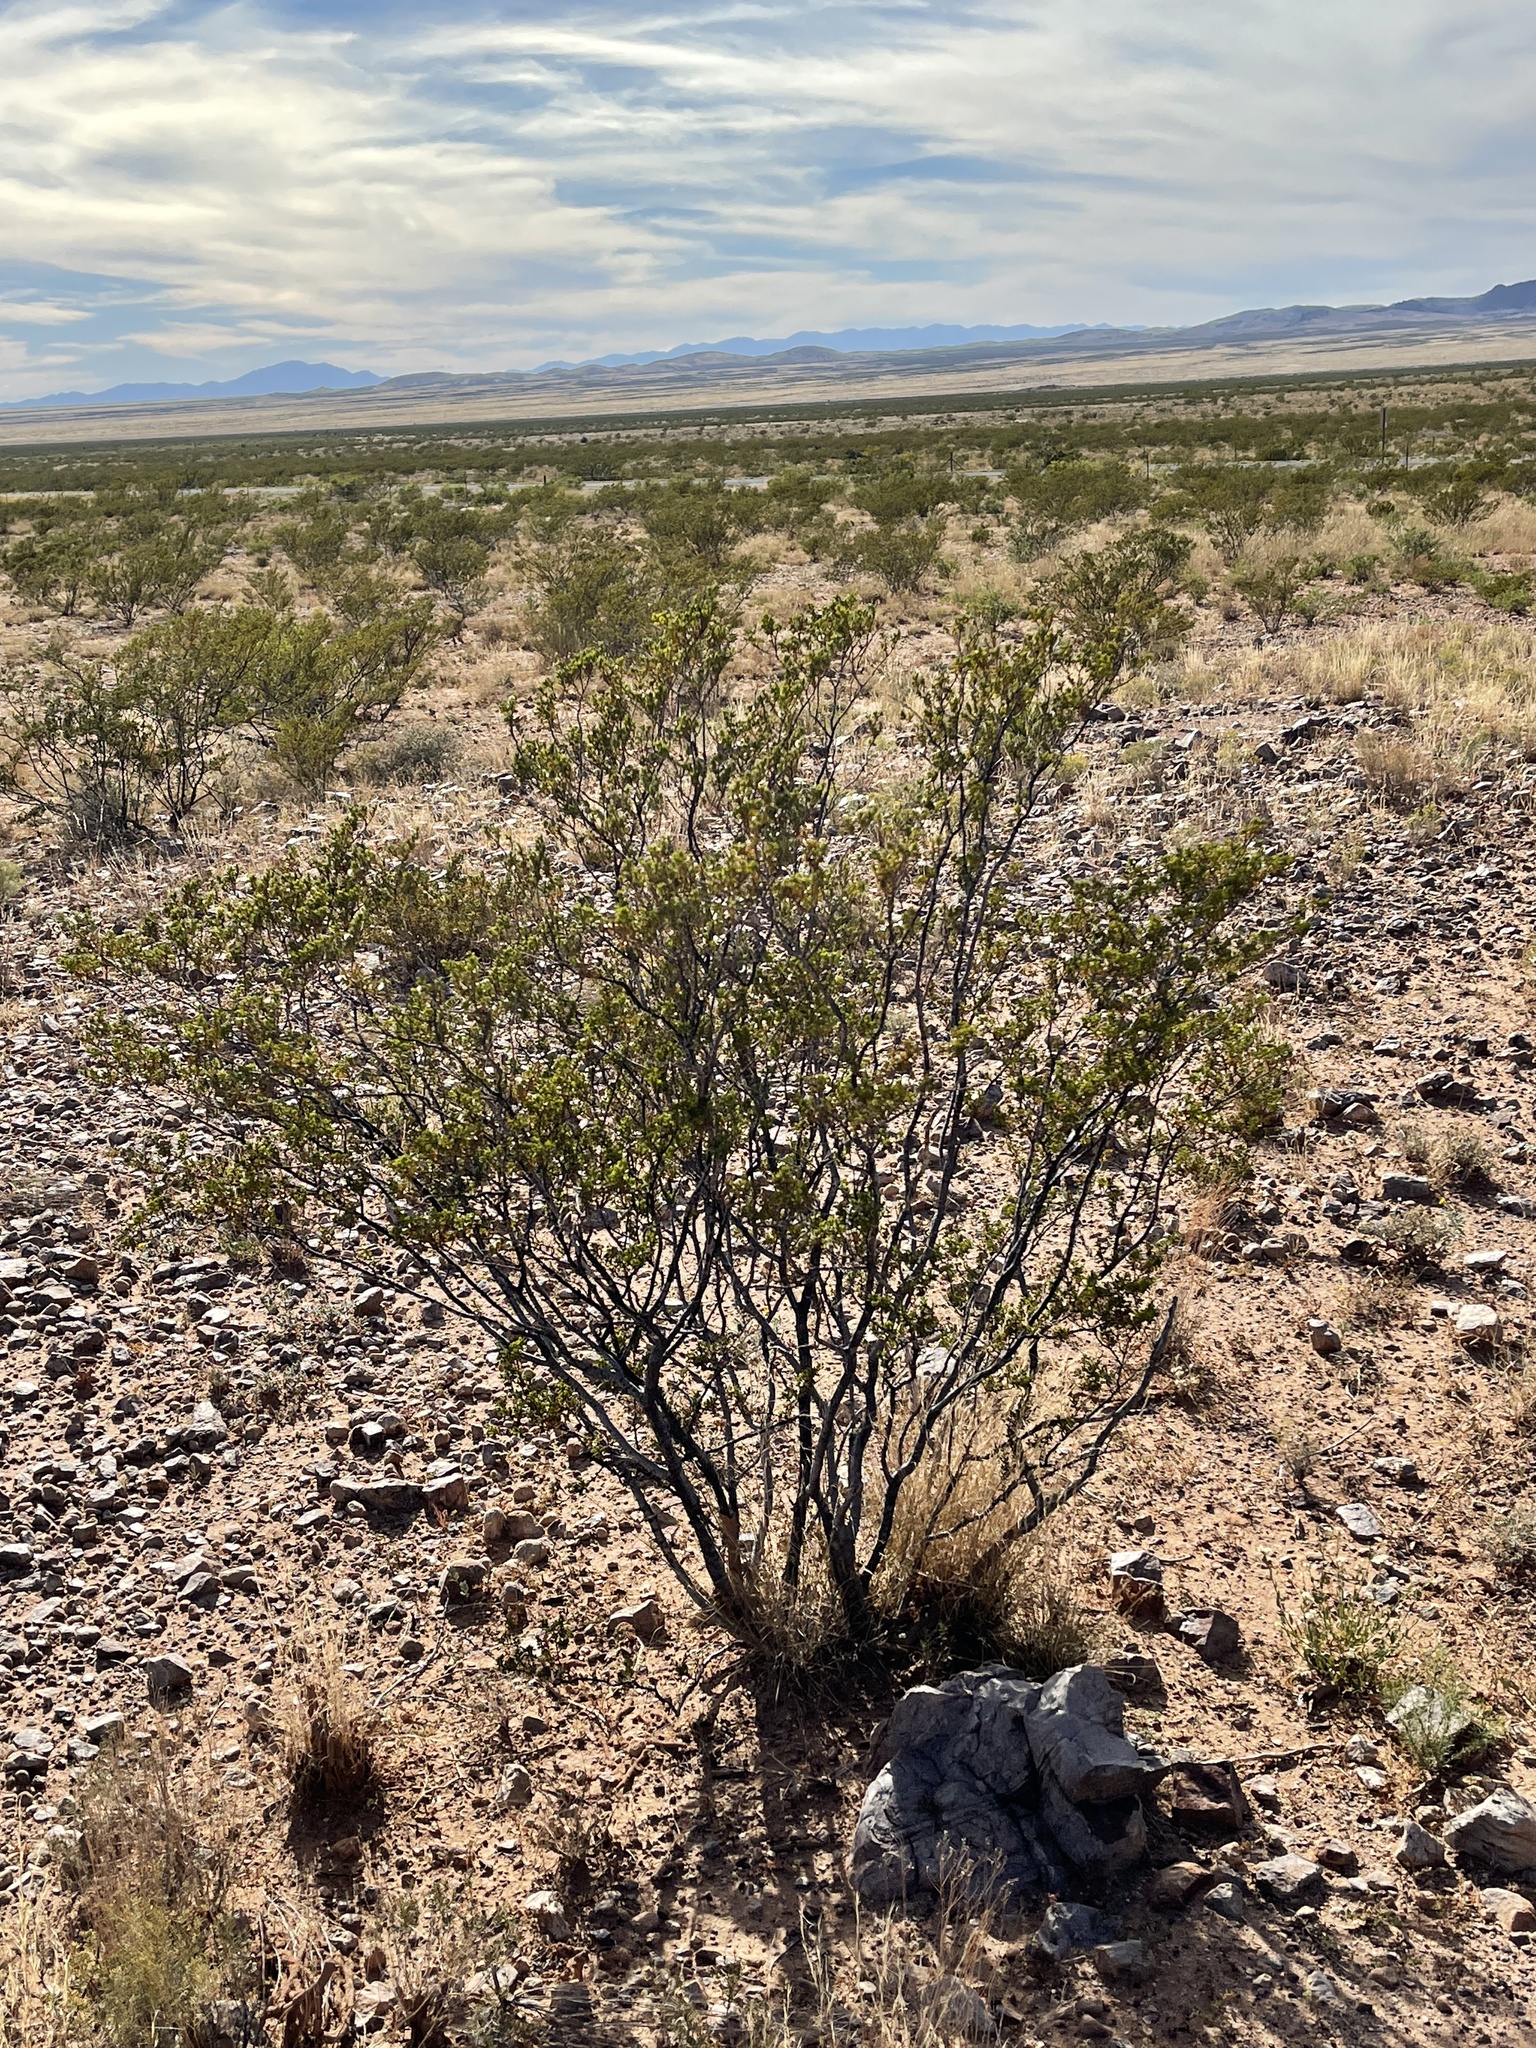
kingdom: Plantae
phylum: Tracheophyta
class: Magnoliopsida
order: Zygophyllales
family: Zygophyllaceae
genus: Larrea
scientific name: Larrea tridentata
